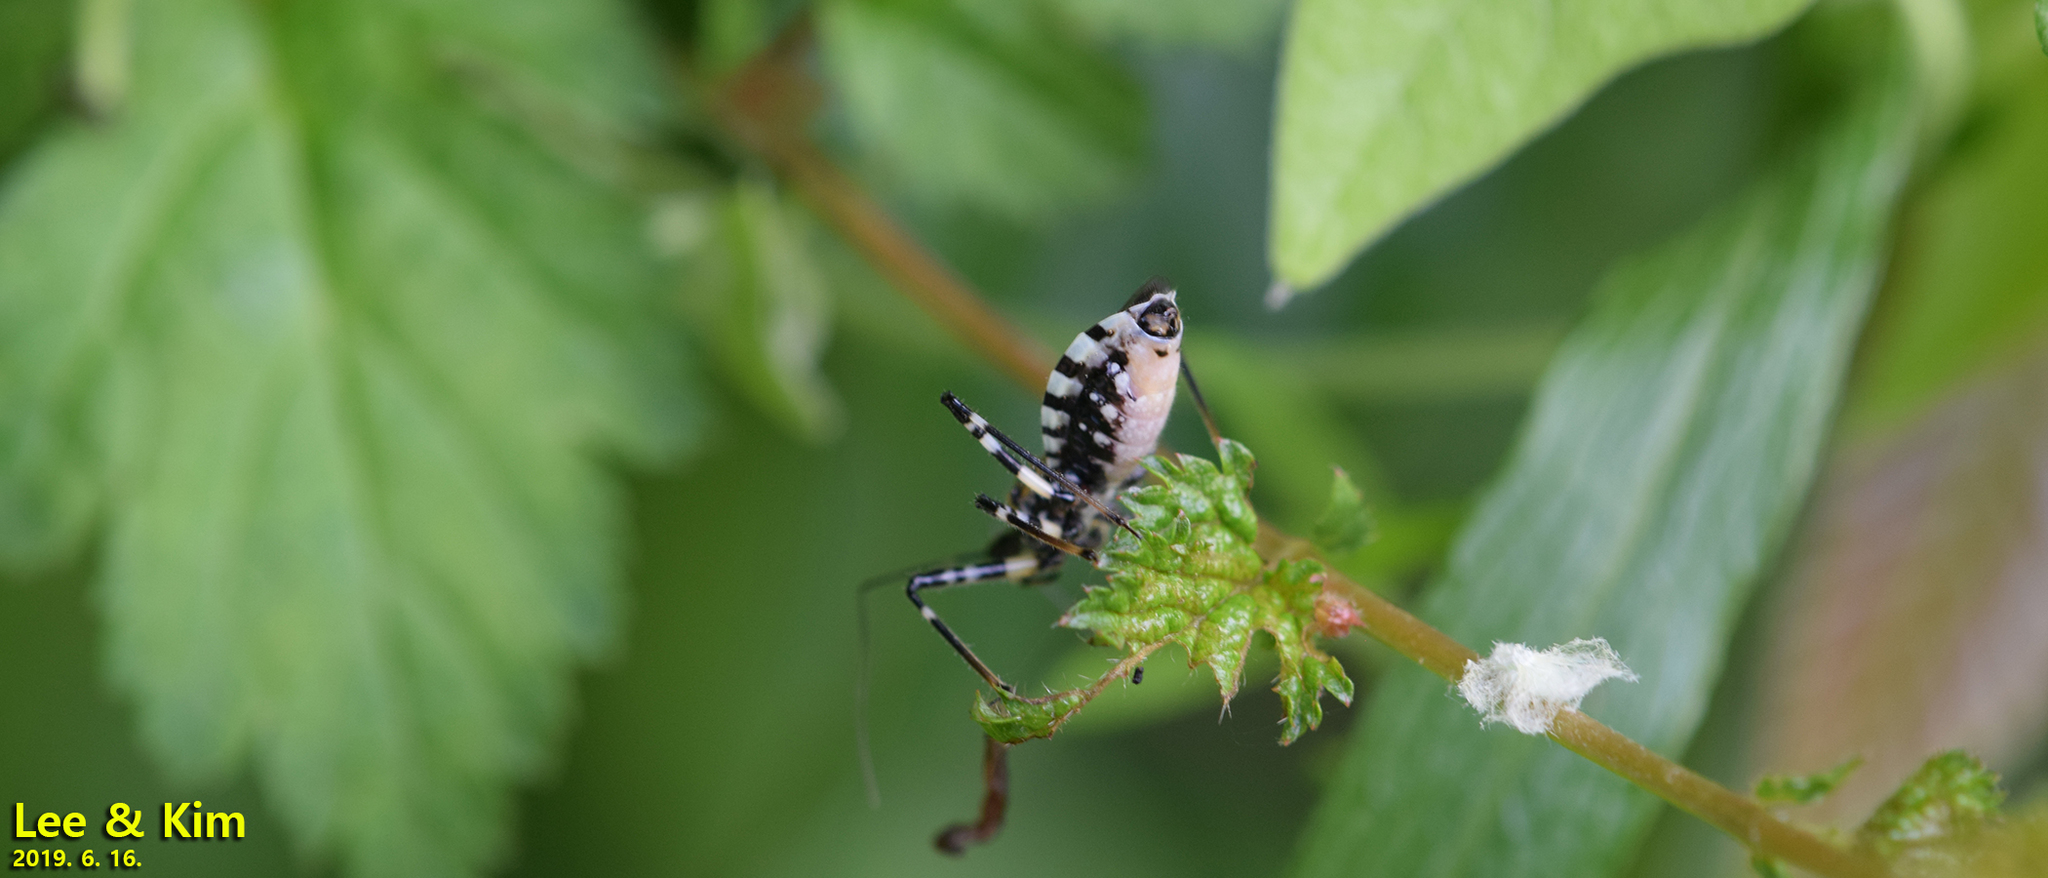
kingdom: Animalia
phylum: Arthropoda
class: Insecta
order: Hemiptera
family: Reduviidae
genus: Sphedanolestes
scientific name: Sphedanolestes impressicollis
